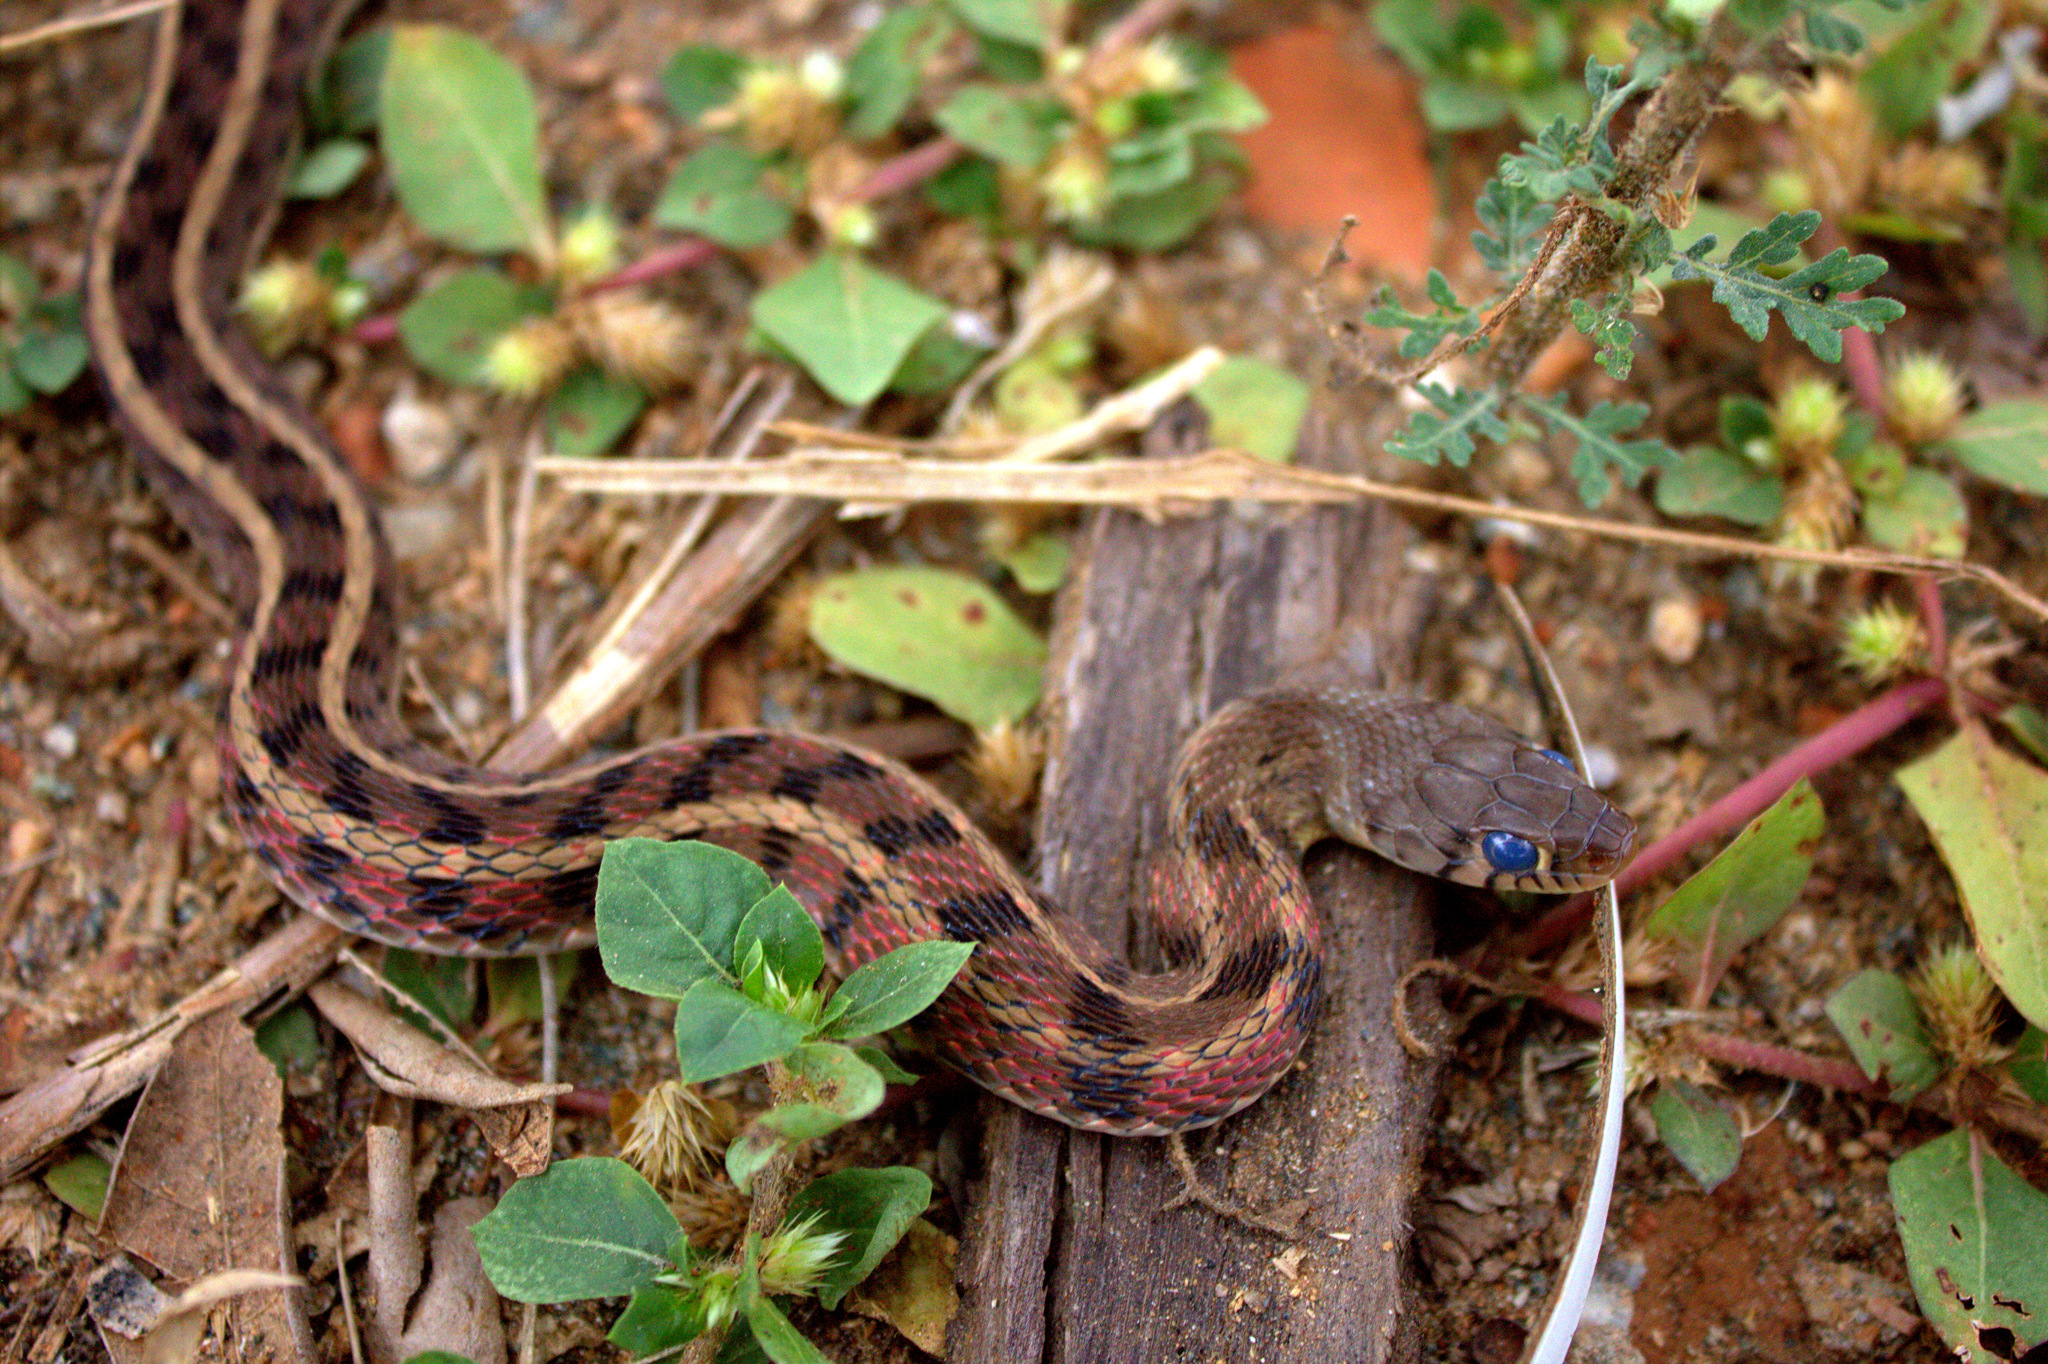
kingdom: Animalia
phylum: Chordata
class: Squamata
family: Colubridae
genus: Amphiesma
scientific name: Amphiesma stolatum
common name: Buff striped keelback
